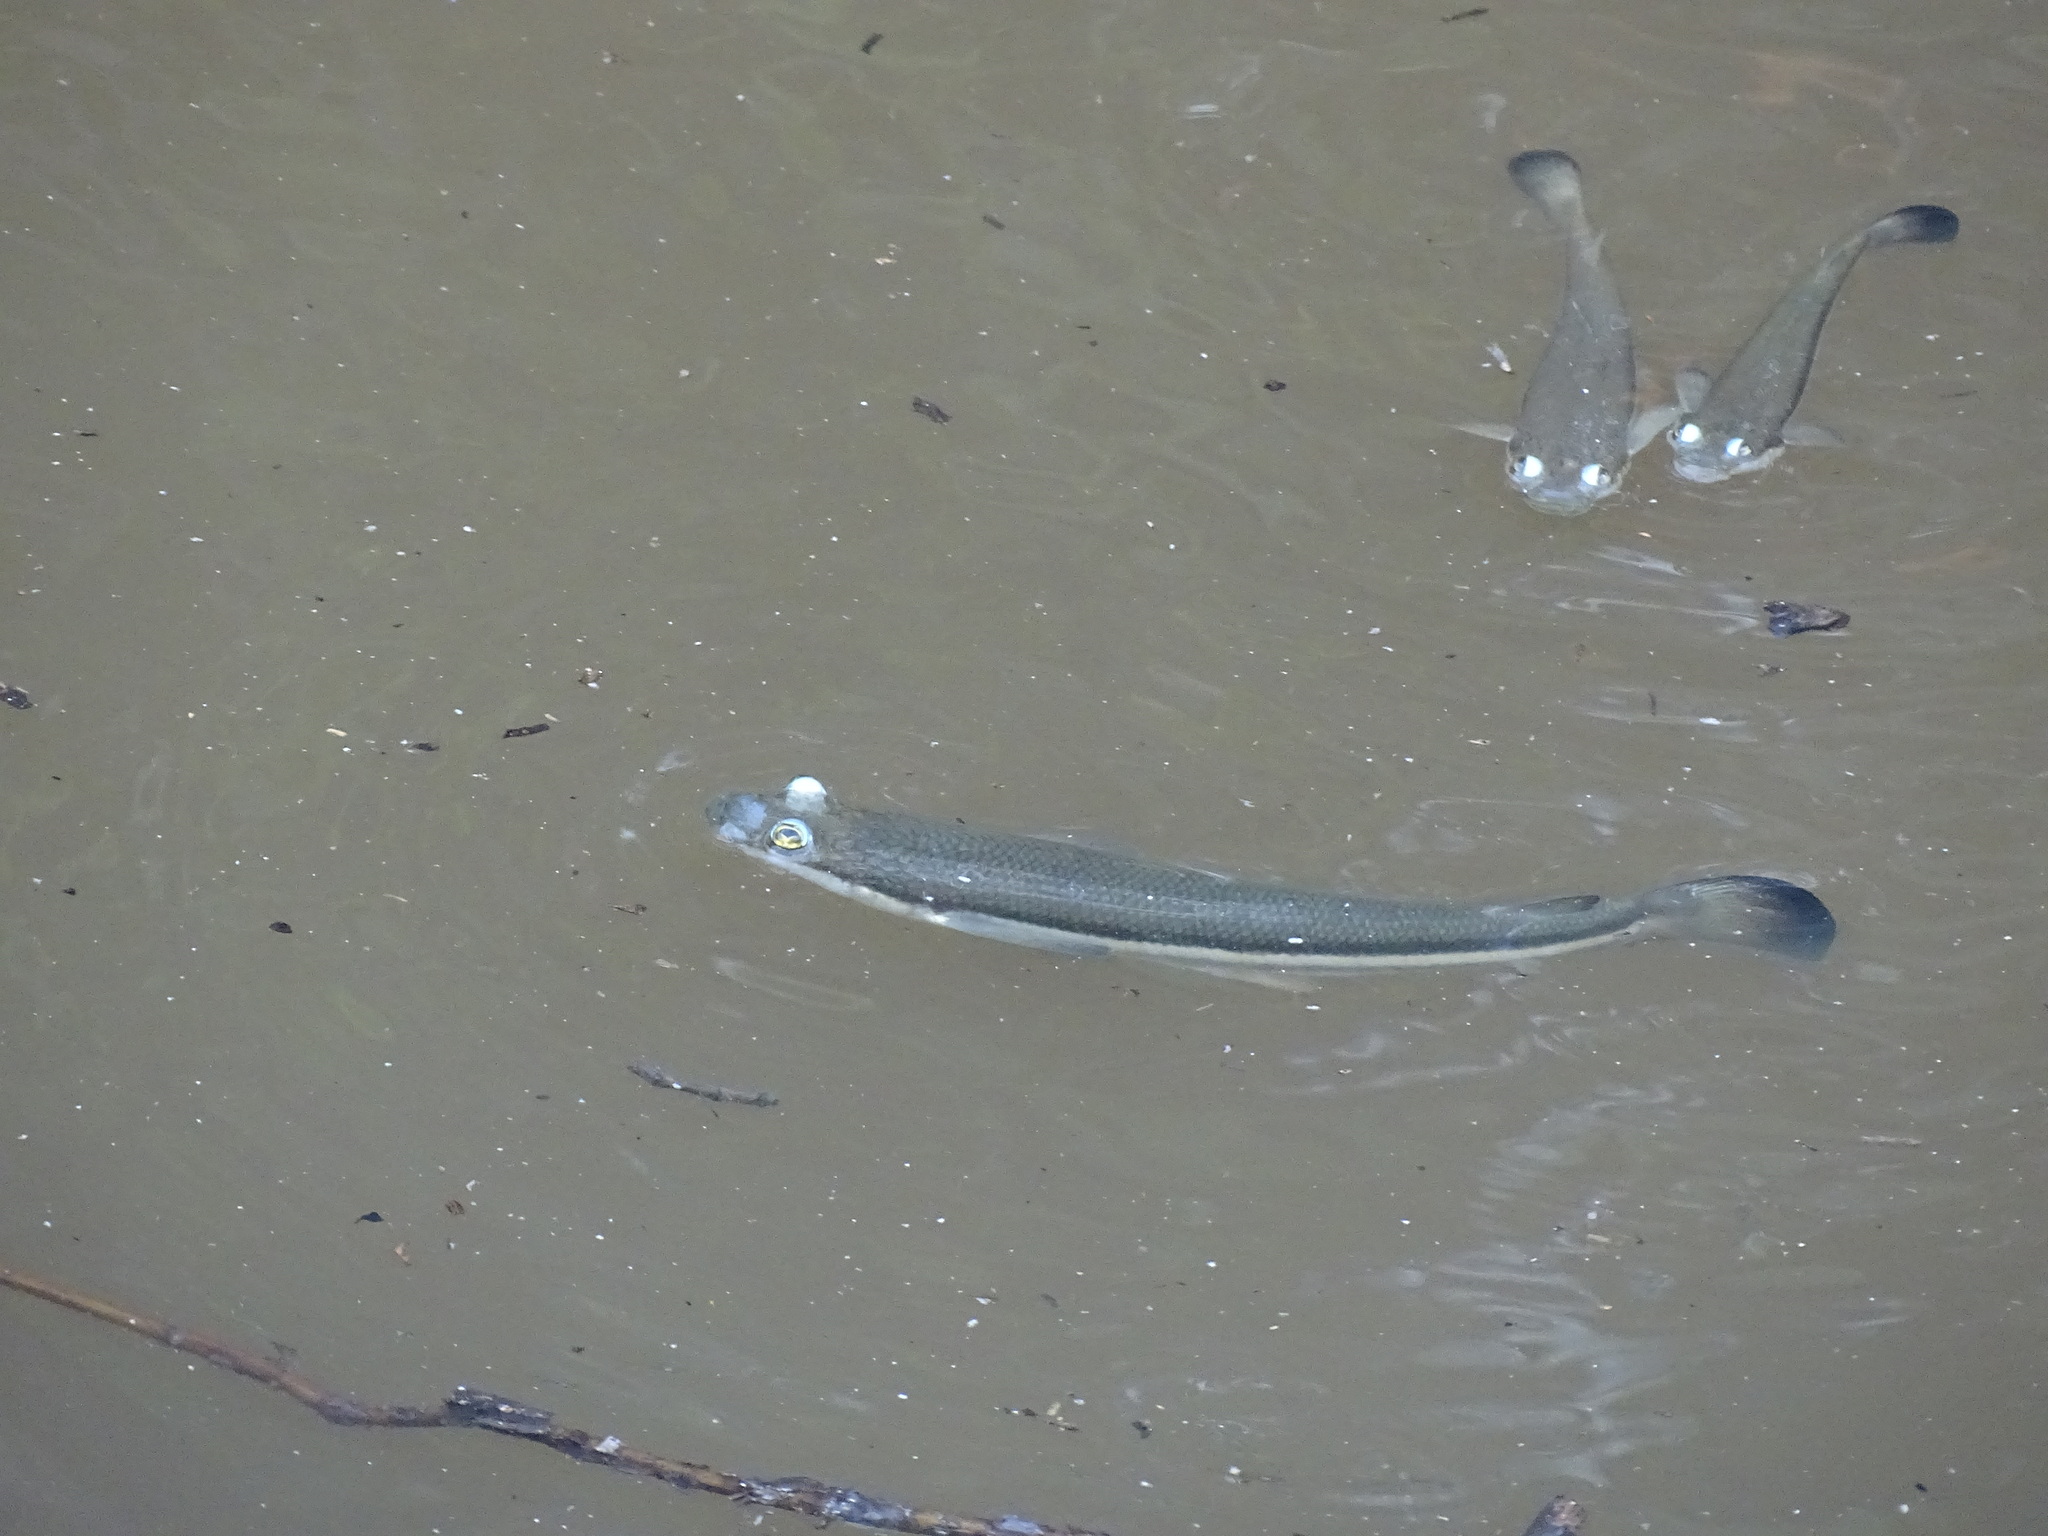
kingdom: Animalia
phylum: Chordata
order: Cyprinodontiformes
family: Anablepidae
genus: Anableps
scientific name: Anableps dowei
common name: Pacific foureyed fish
